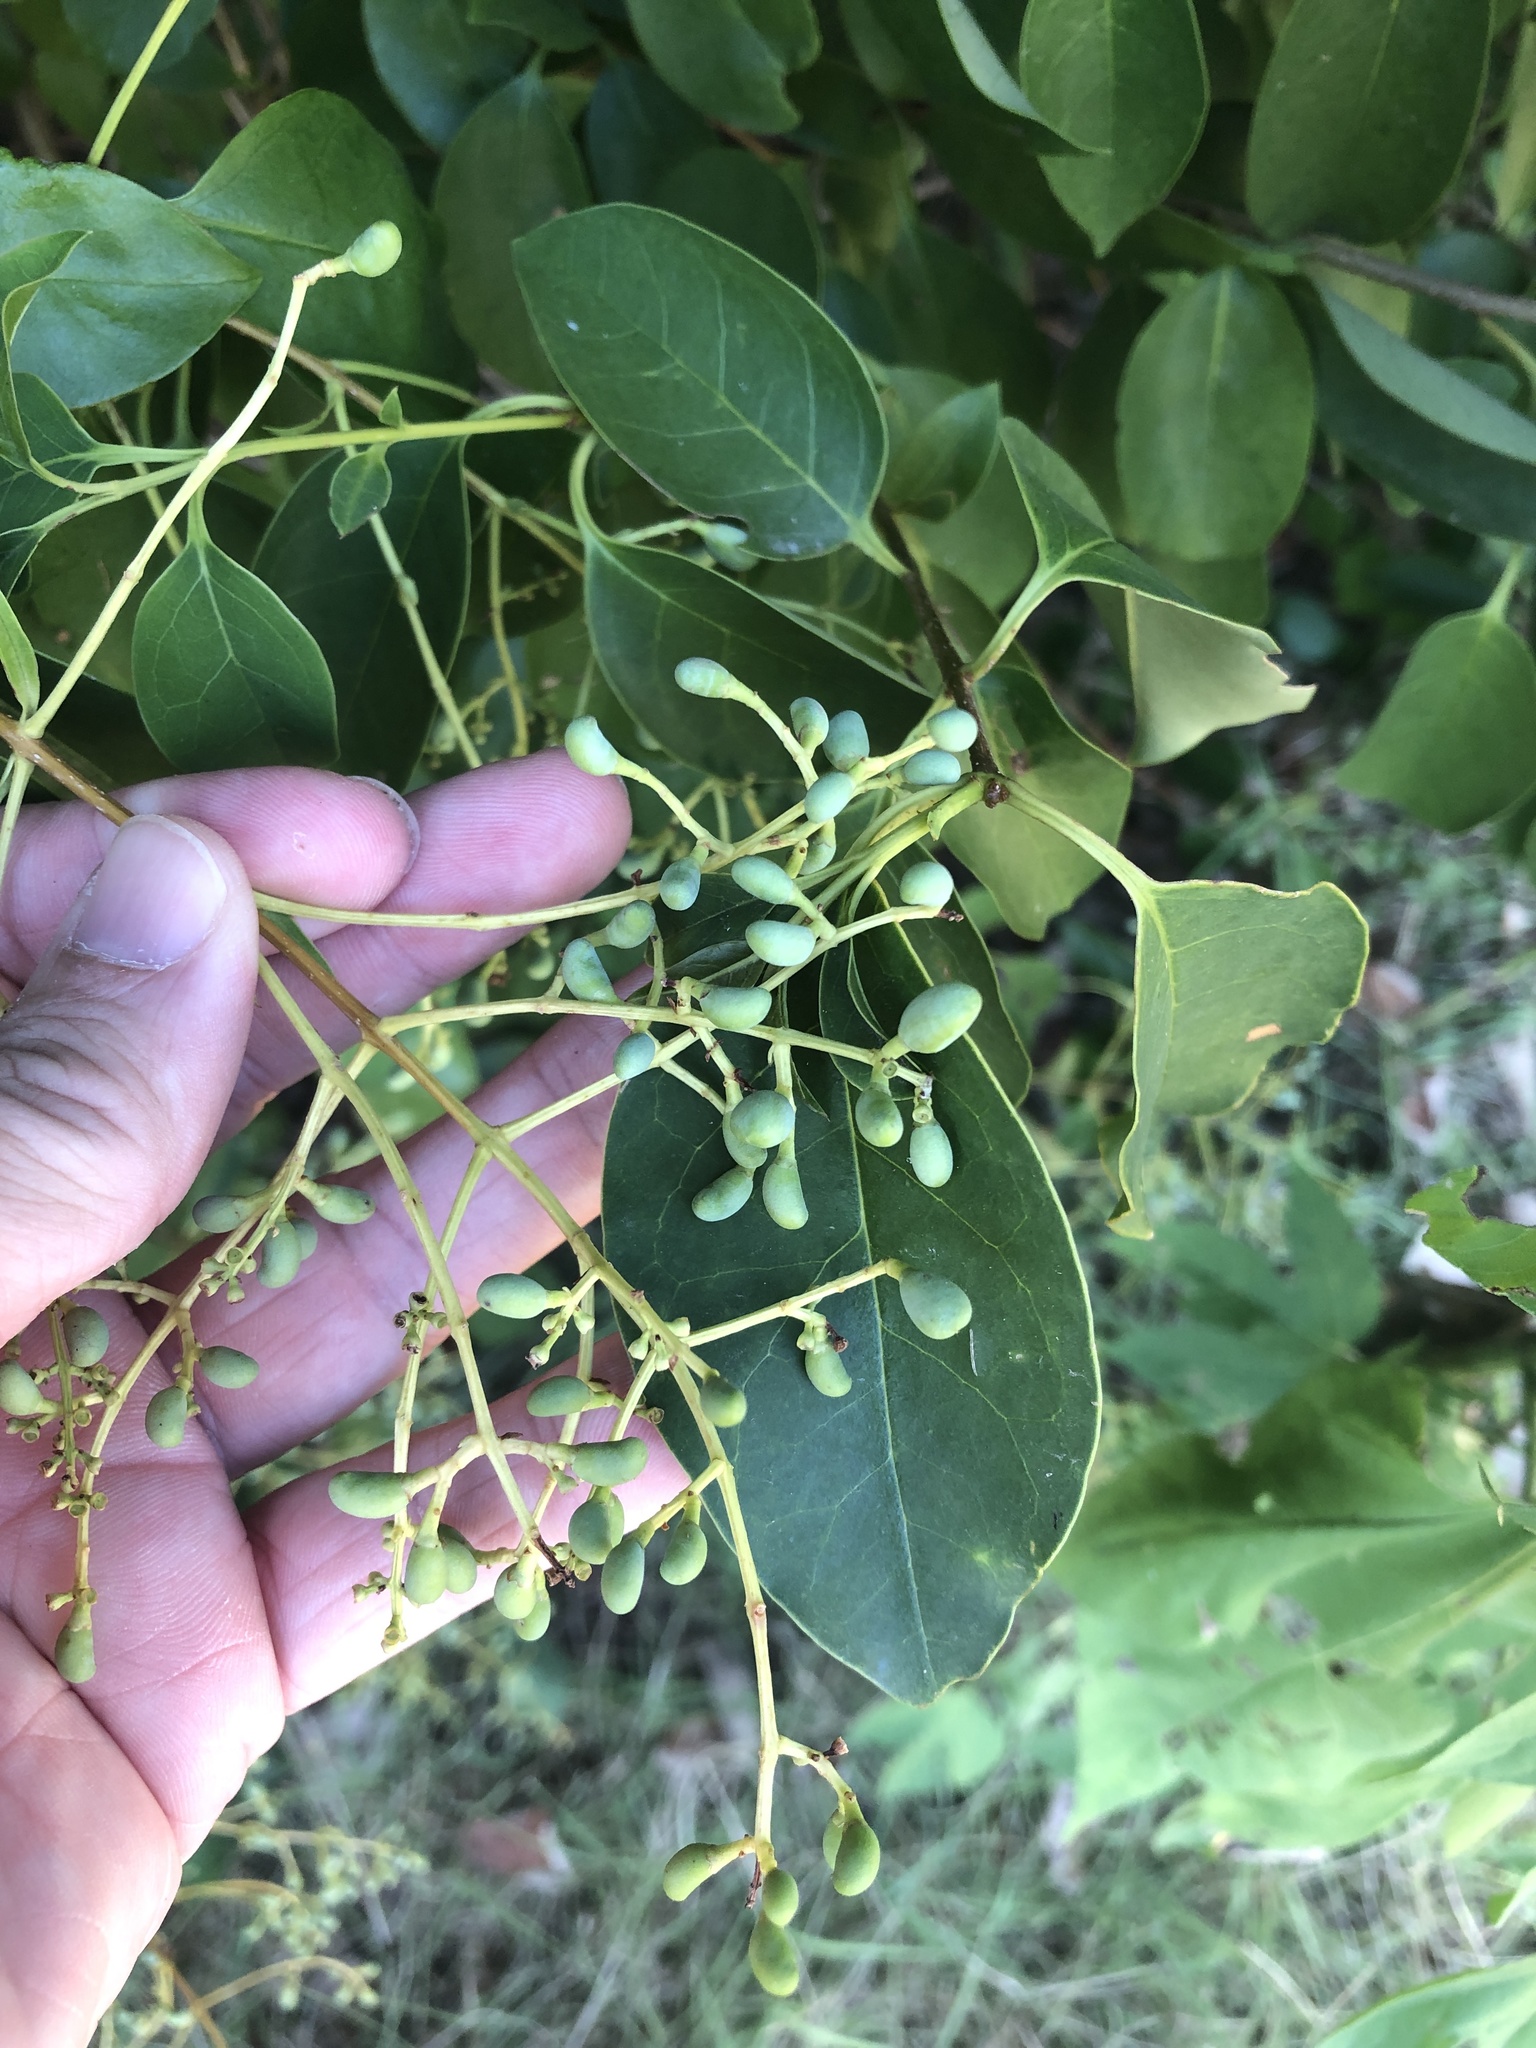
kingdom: Plantae
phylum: Tracheophyta
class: Magnoliopsida
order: Lamiales
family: Oleaceae
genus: Ligustrum
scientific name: Ligustrum lucidum
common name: Glossy privet
